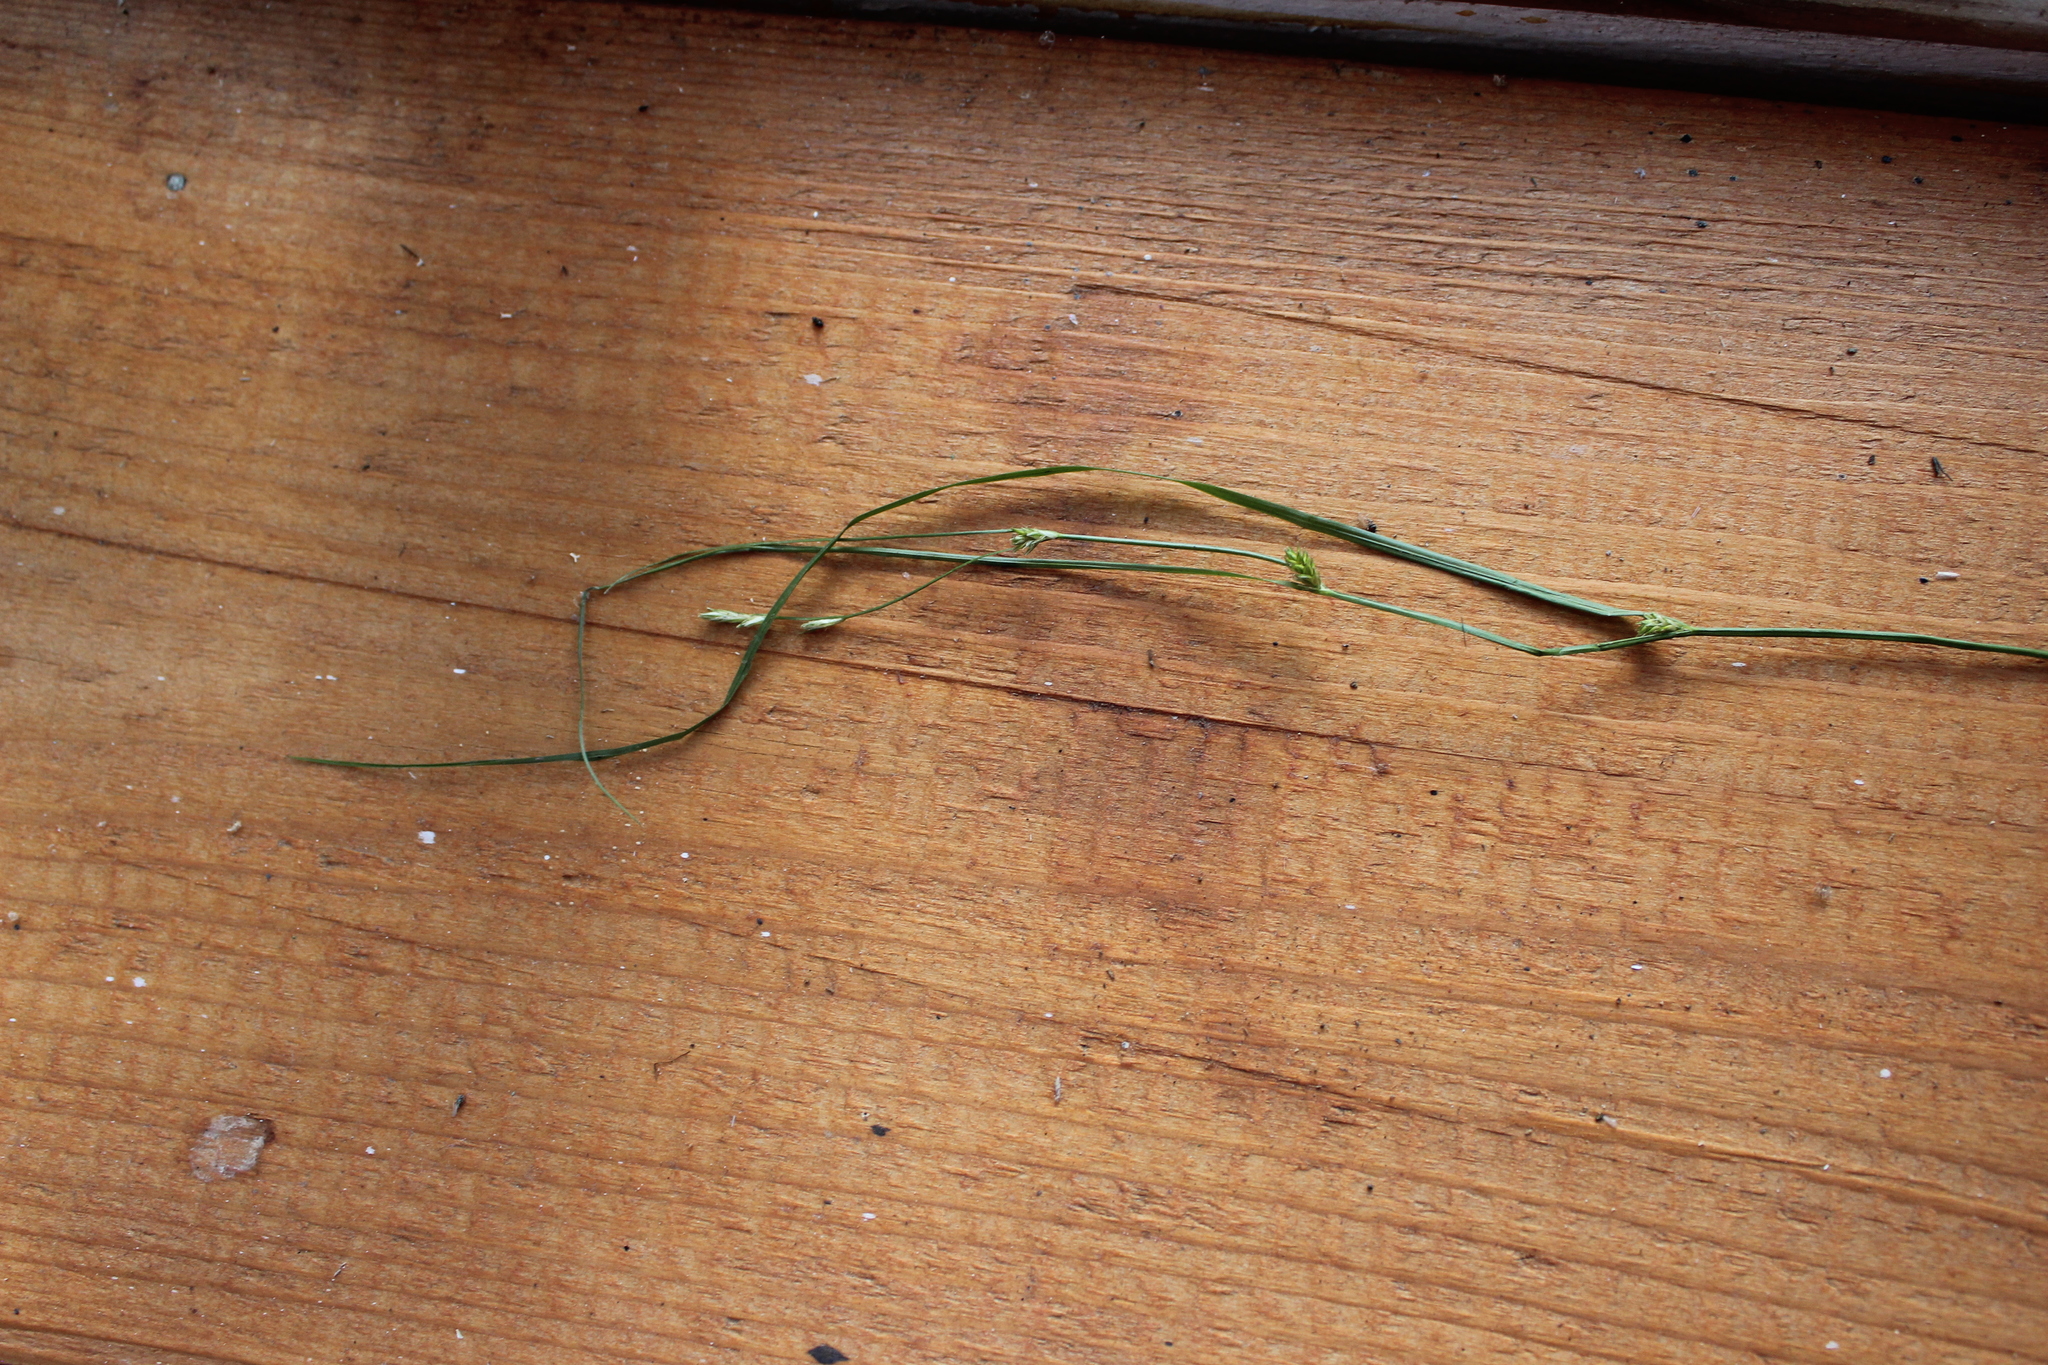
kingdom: Plantae
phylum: Tracheophyta
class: Liliopsida
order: Poales
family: Cyperaceae
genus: Carex
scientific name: Carex remota
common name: Remote sedge
